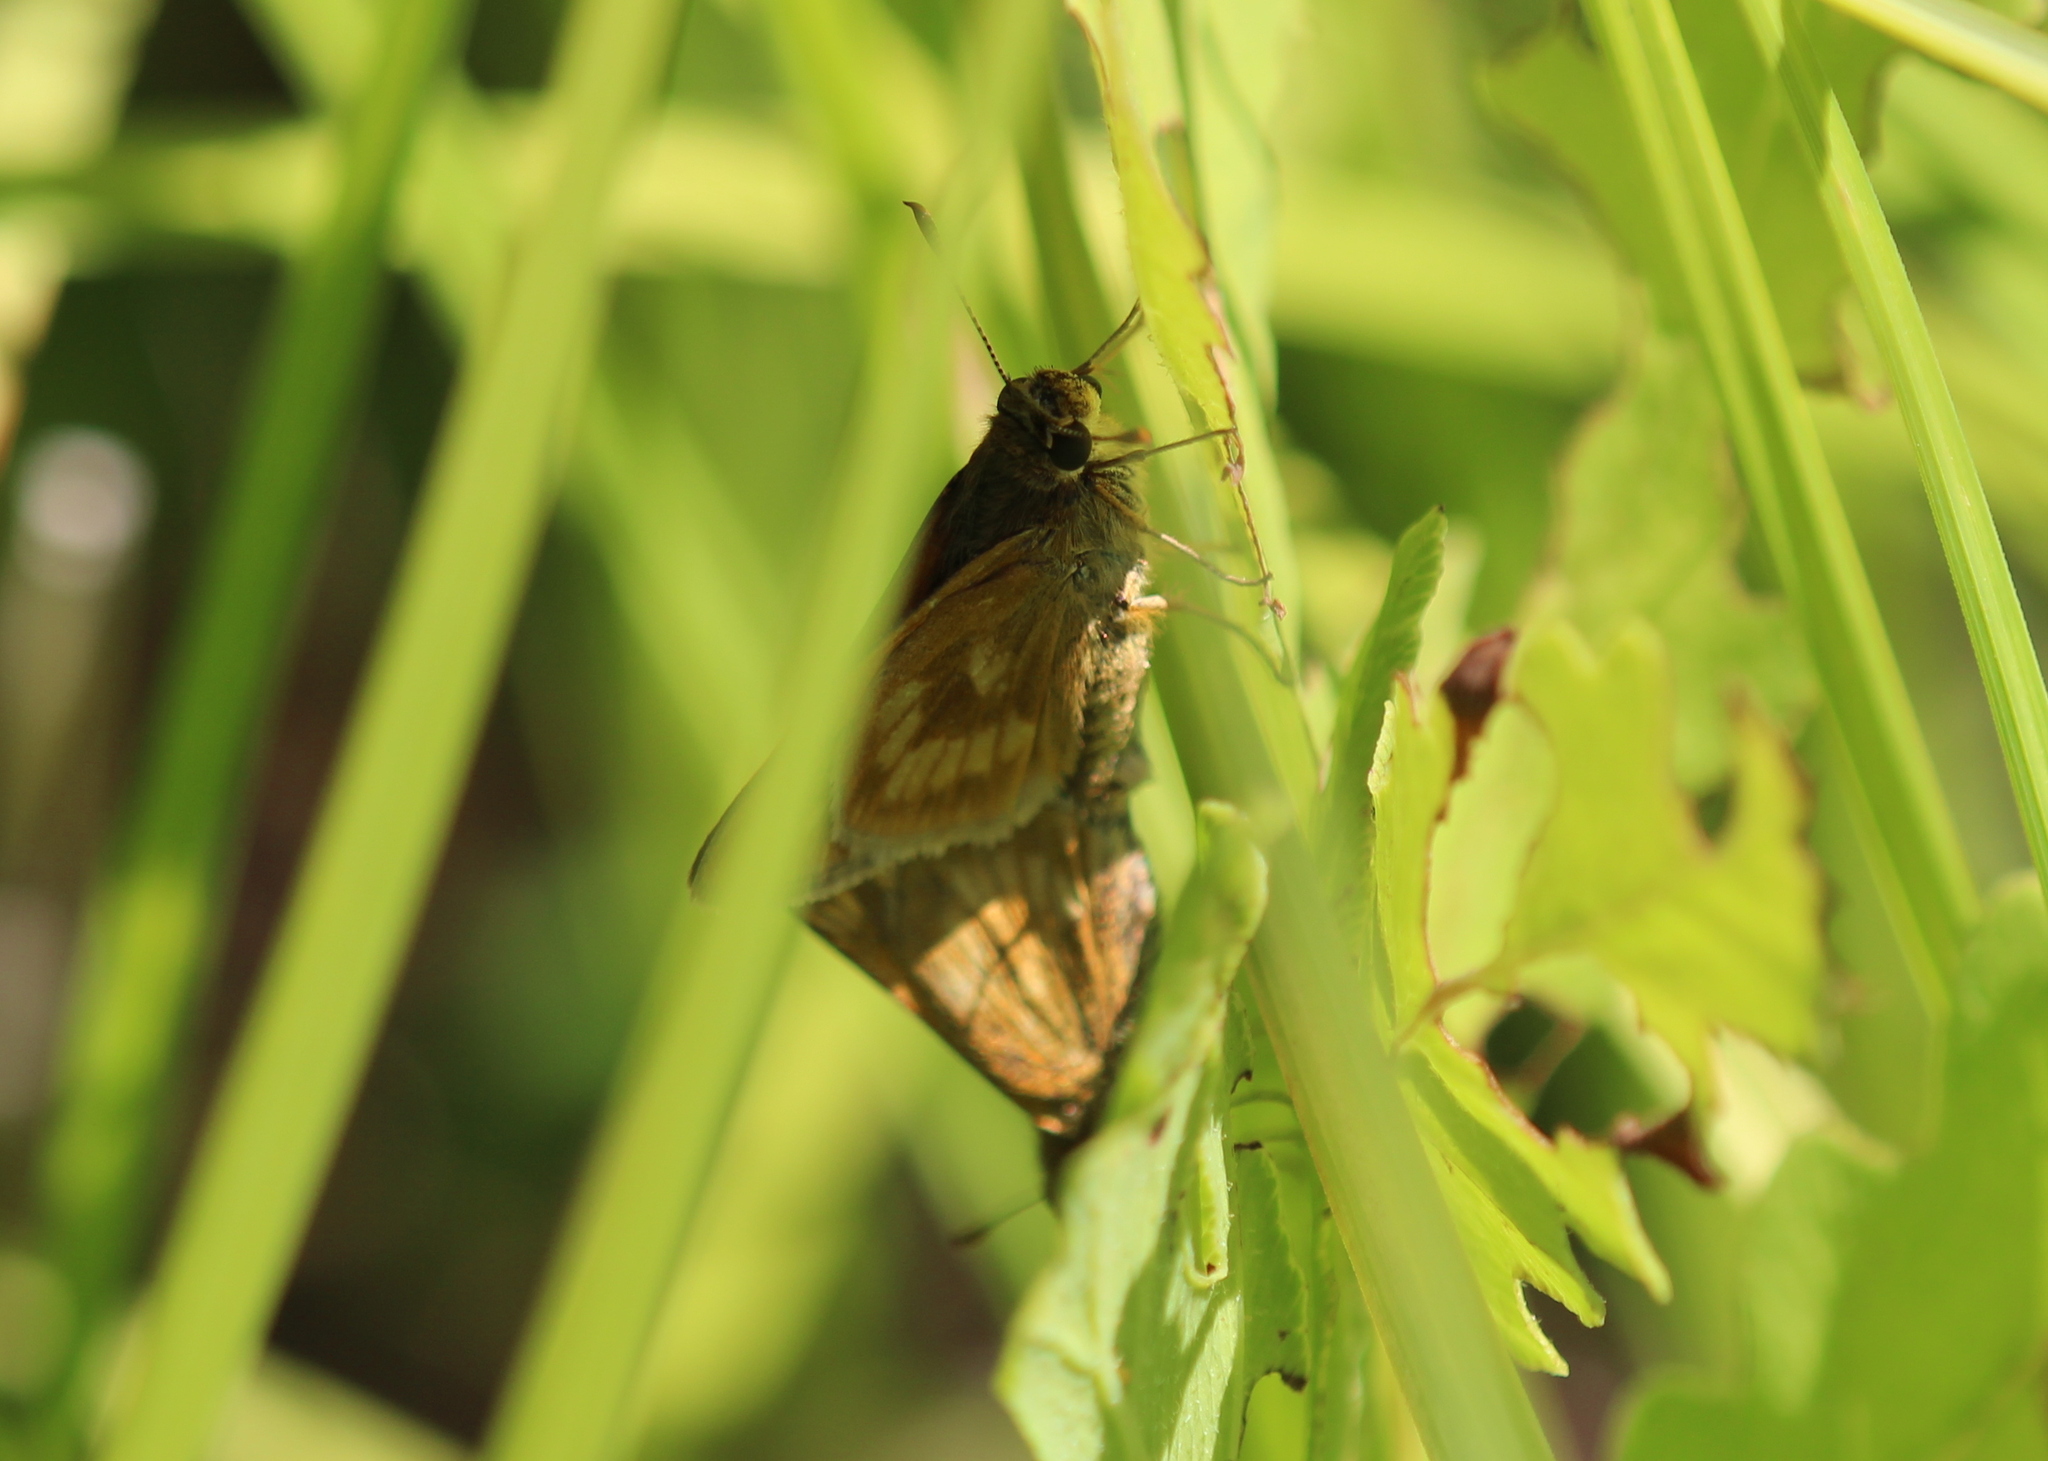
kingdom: Animalia
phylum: Arthropoda
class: Insecta
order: Lepidoptera
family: Hesperiidae
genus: Polites
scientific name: Polites mystic
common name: Long dash
